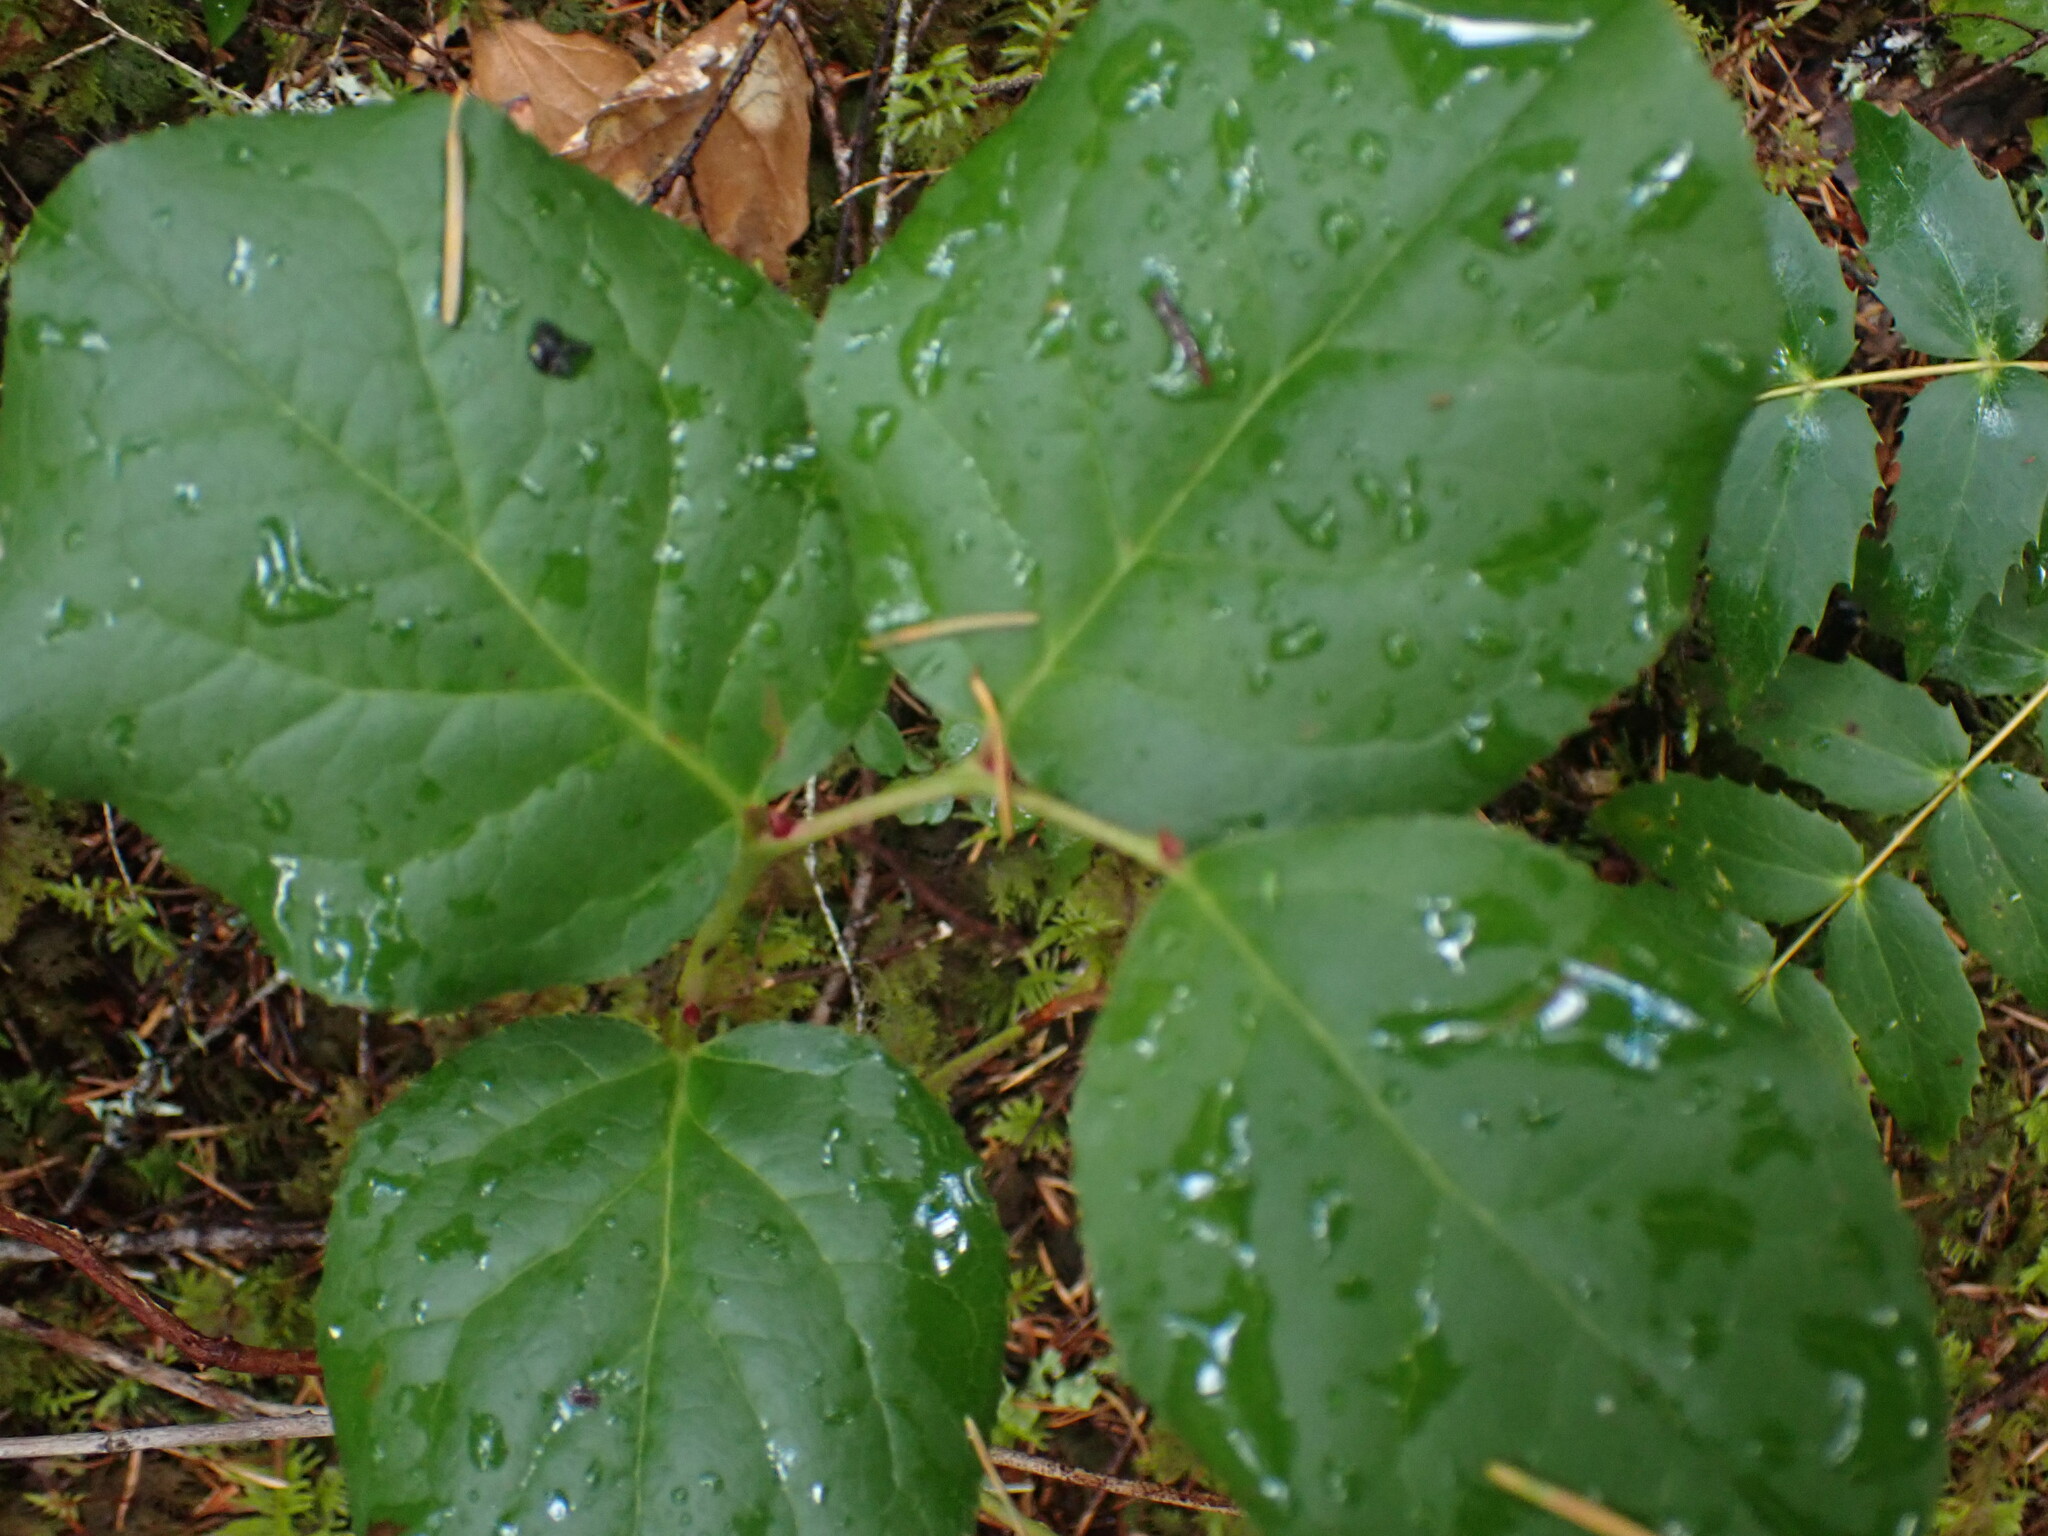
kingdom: Plantae
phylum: Tracheophyta
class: Magnoliopsida
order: Ericales
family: Ericaceae
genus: Gaultheria
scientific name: Gaultheria shallon
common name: Shallon
